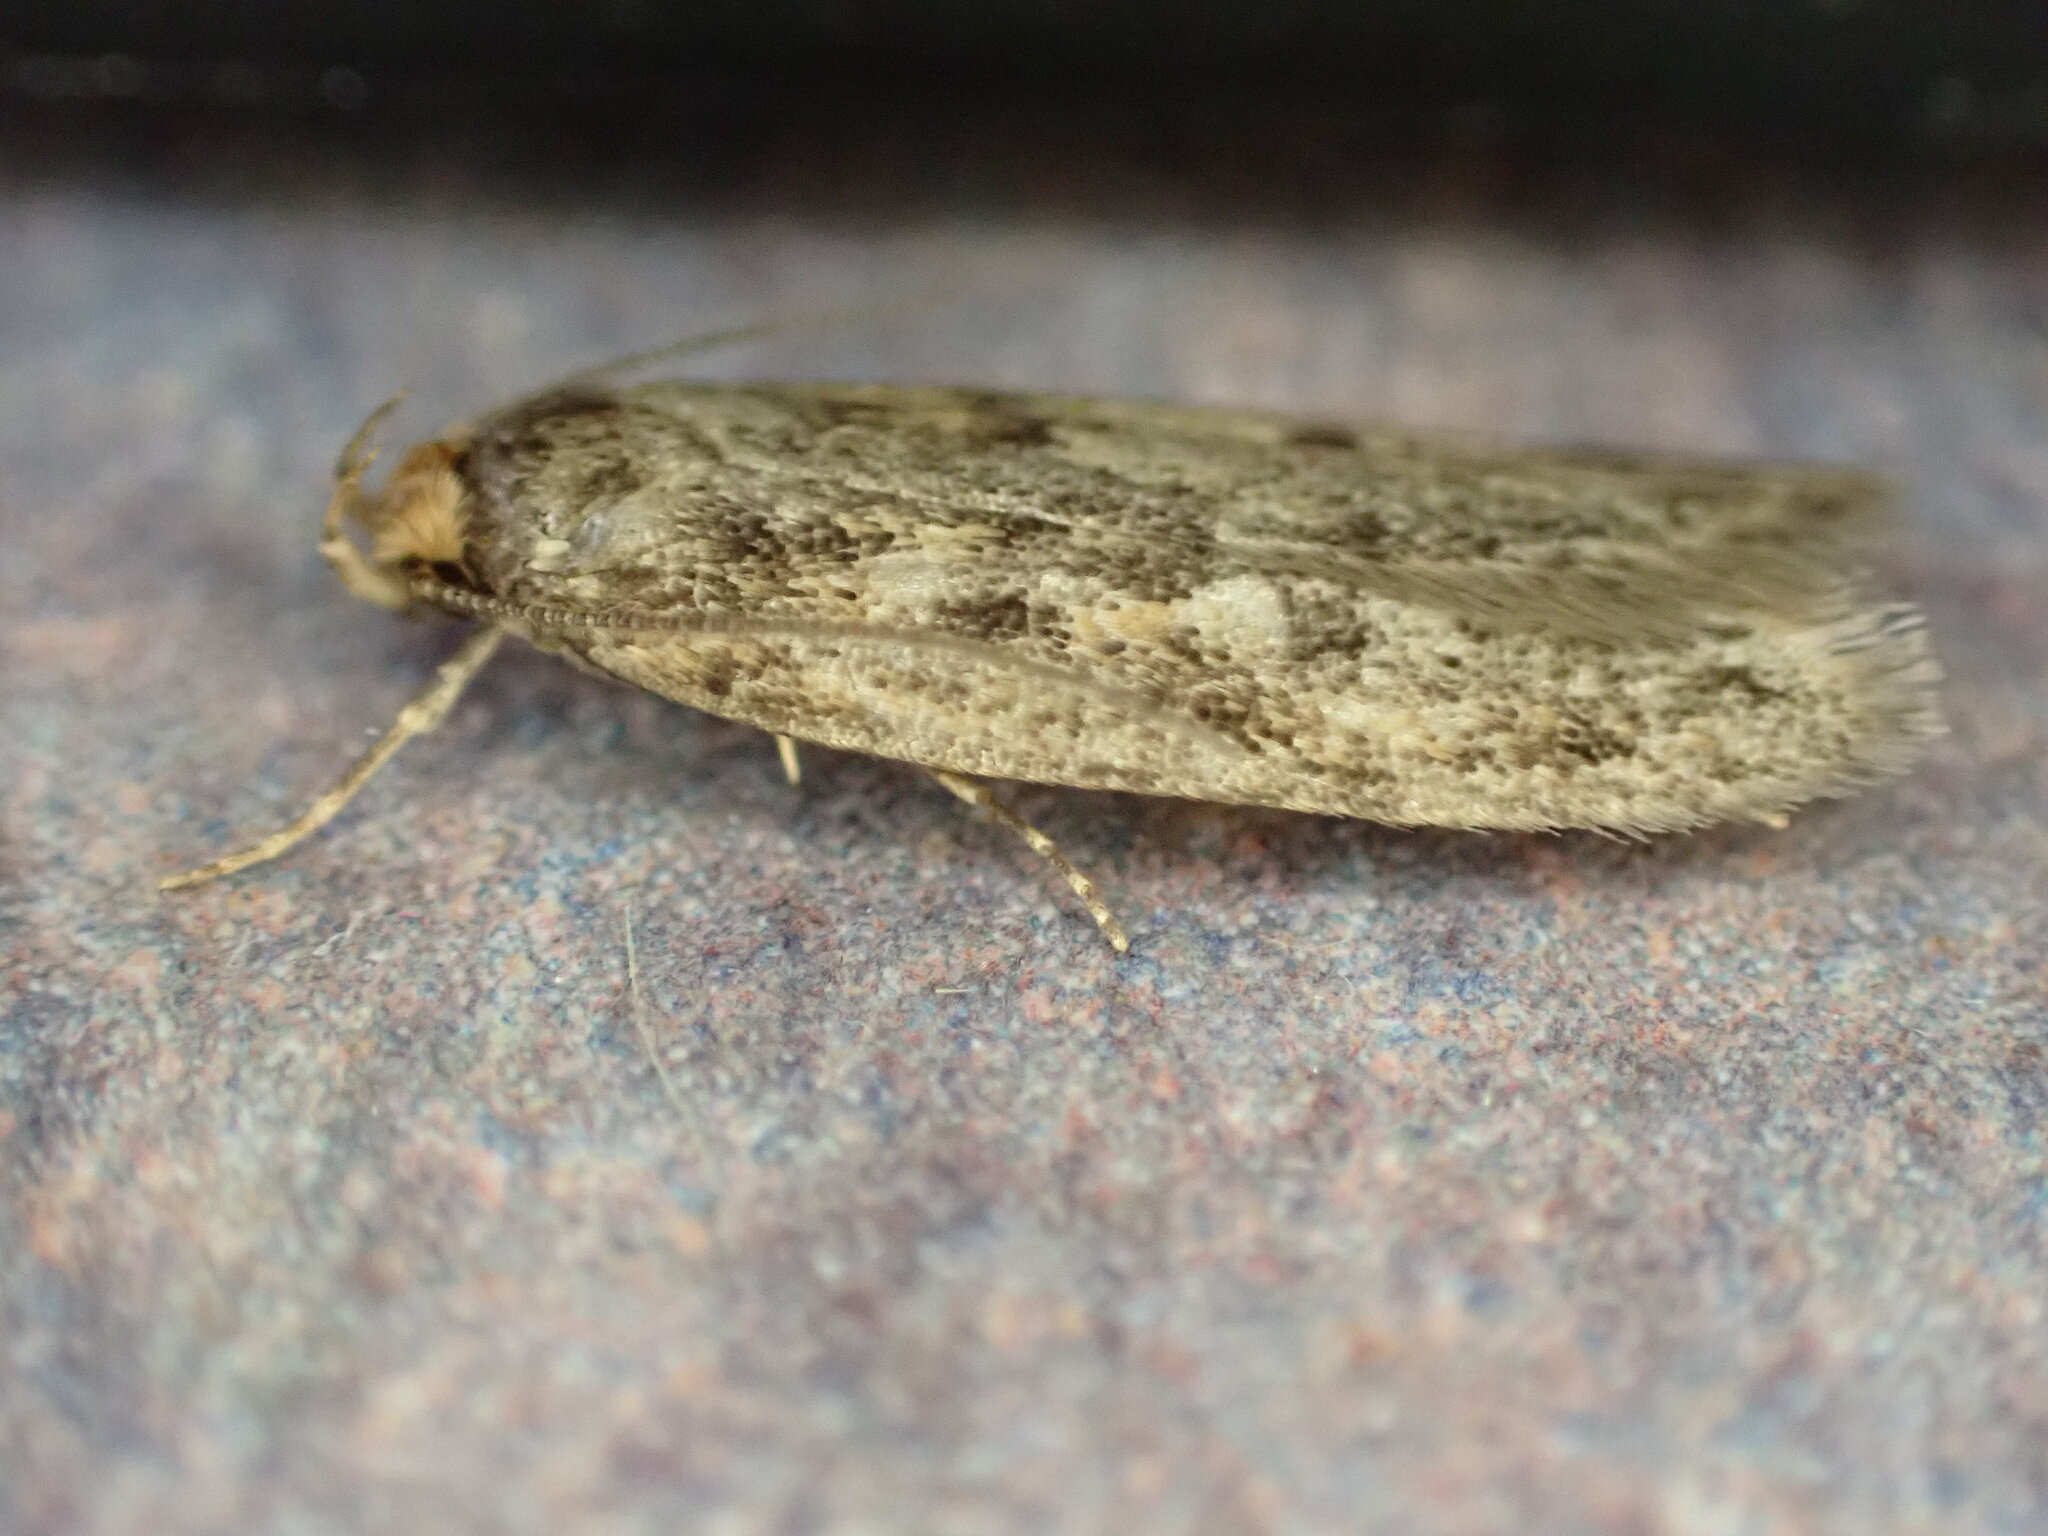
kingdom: Animalia
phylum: Arthropoda
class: Insecta
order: Lepidoptera
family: Oecophoridae
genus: Hofmannophila
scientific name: Hofmannophila pseudospretella
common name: Brown house moth
